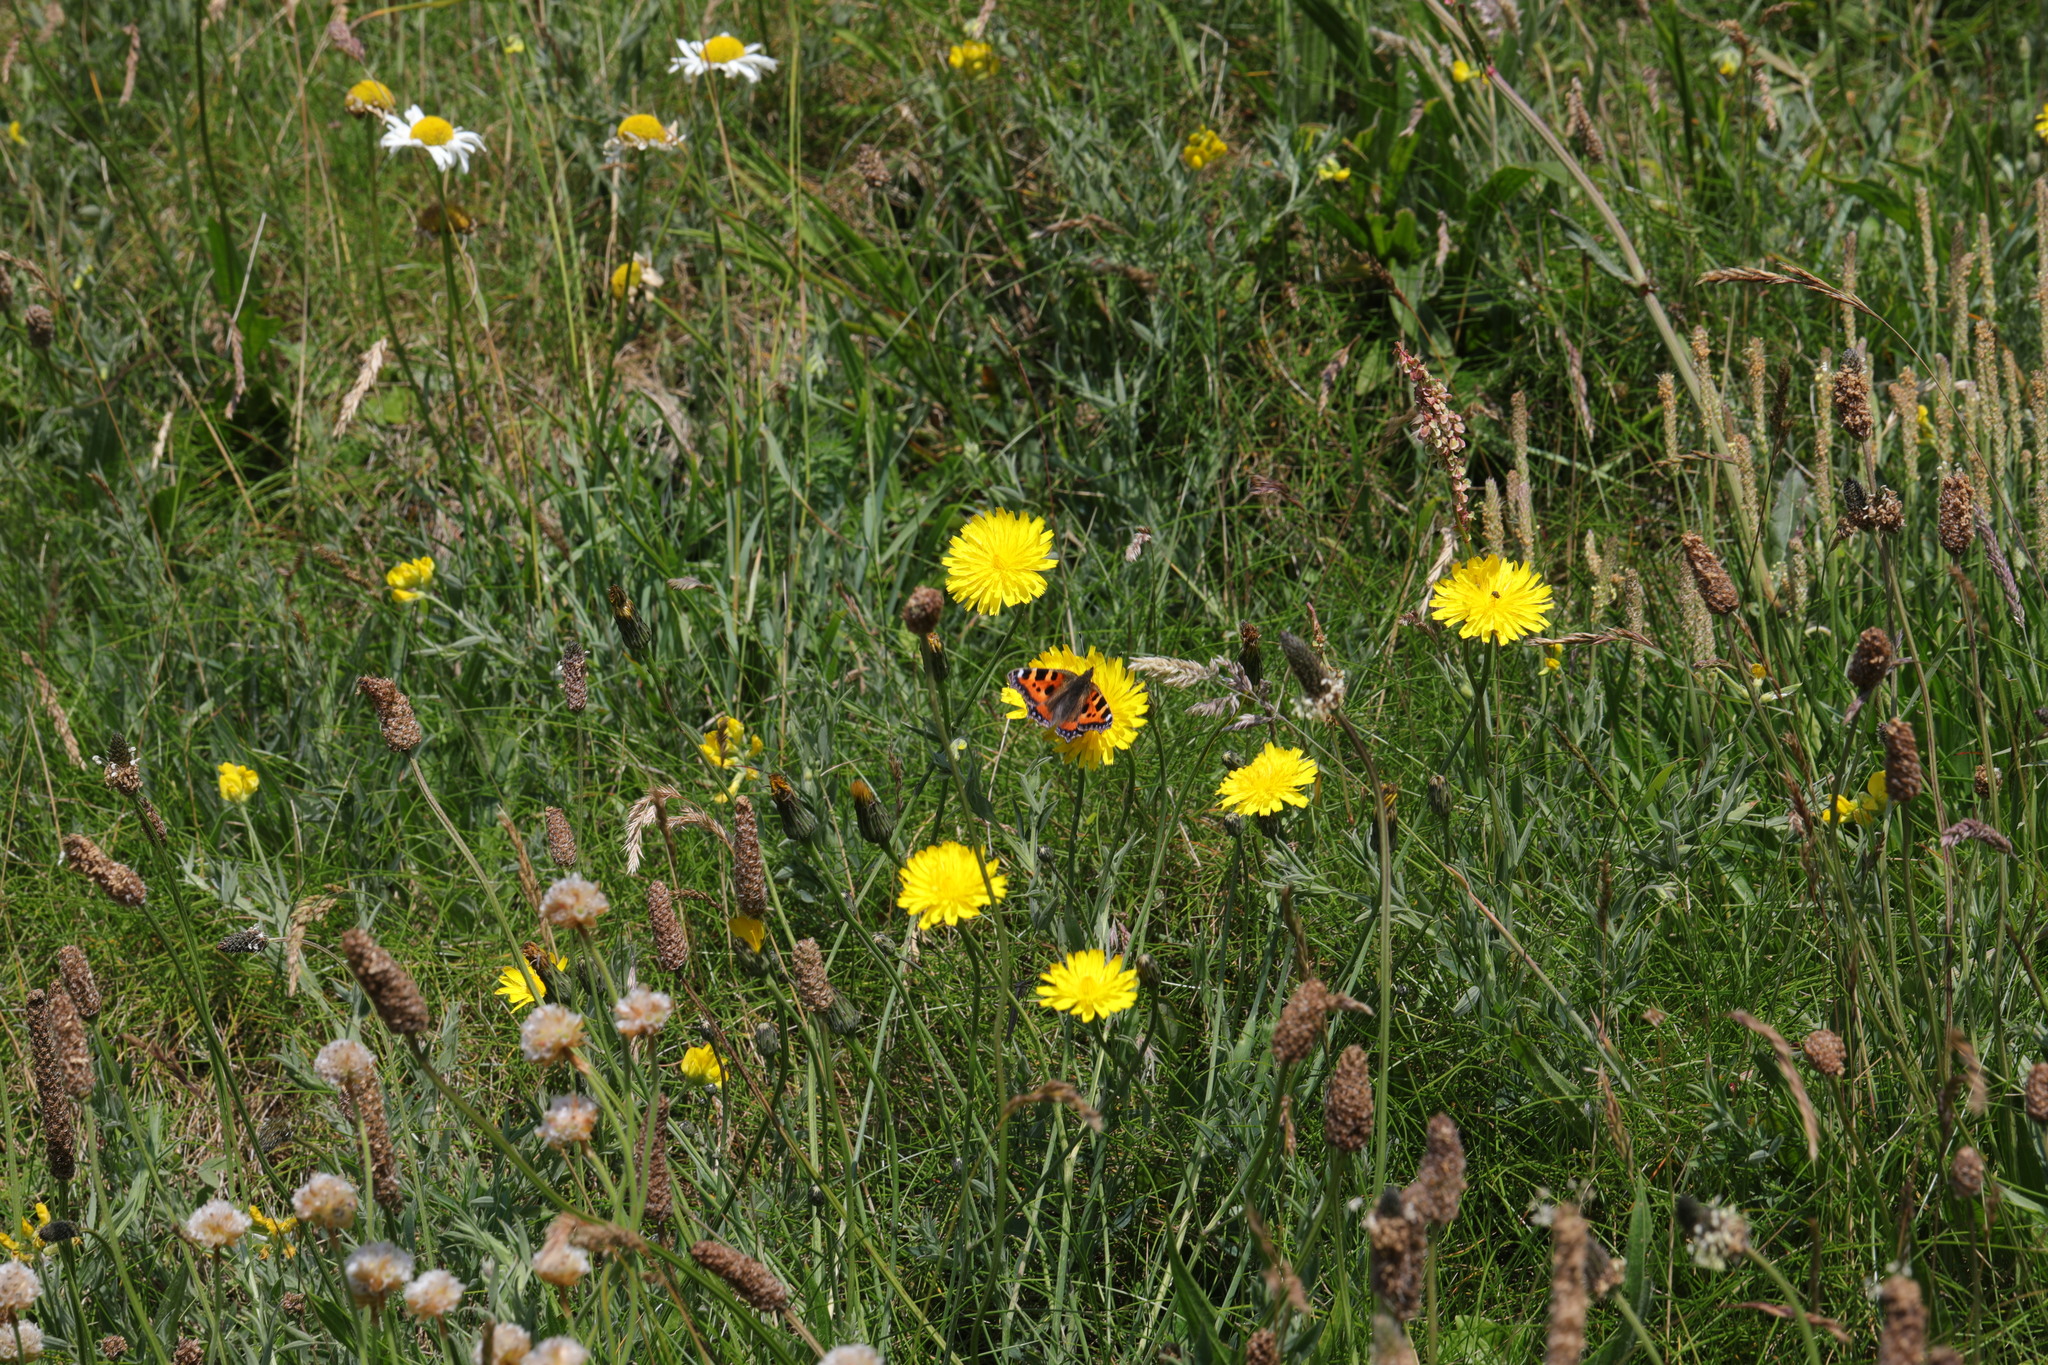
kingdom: Animalia
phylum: Arthropoda
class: Insecta
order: Lepidoptera
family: Nymphalidae
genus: Aglais
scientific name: Aglais urticae
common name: Small tortoiseshell
